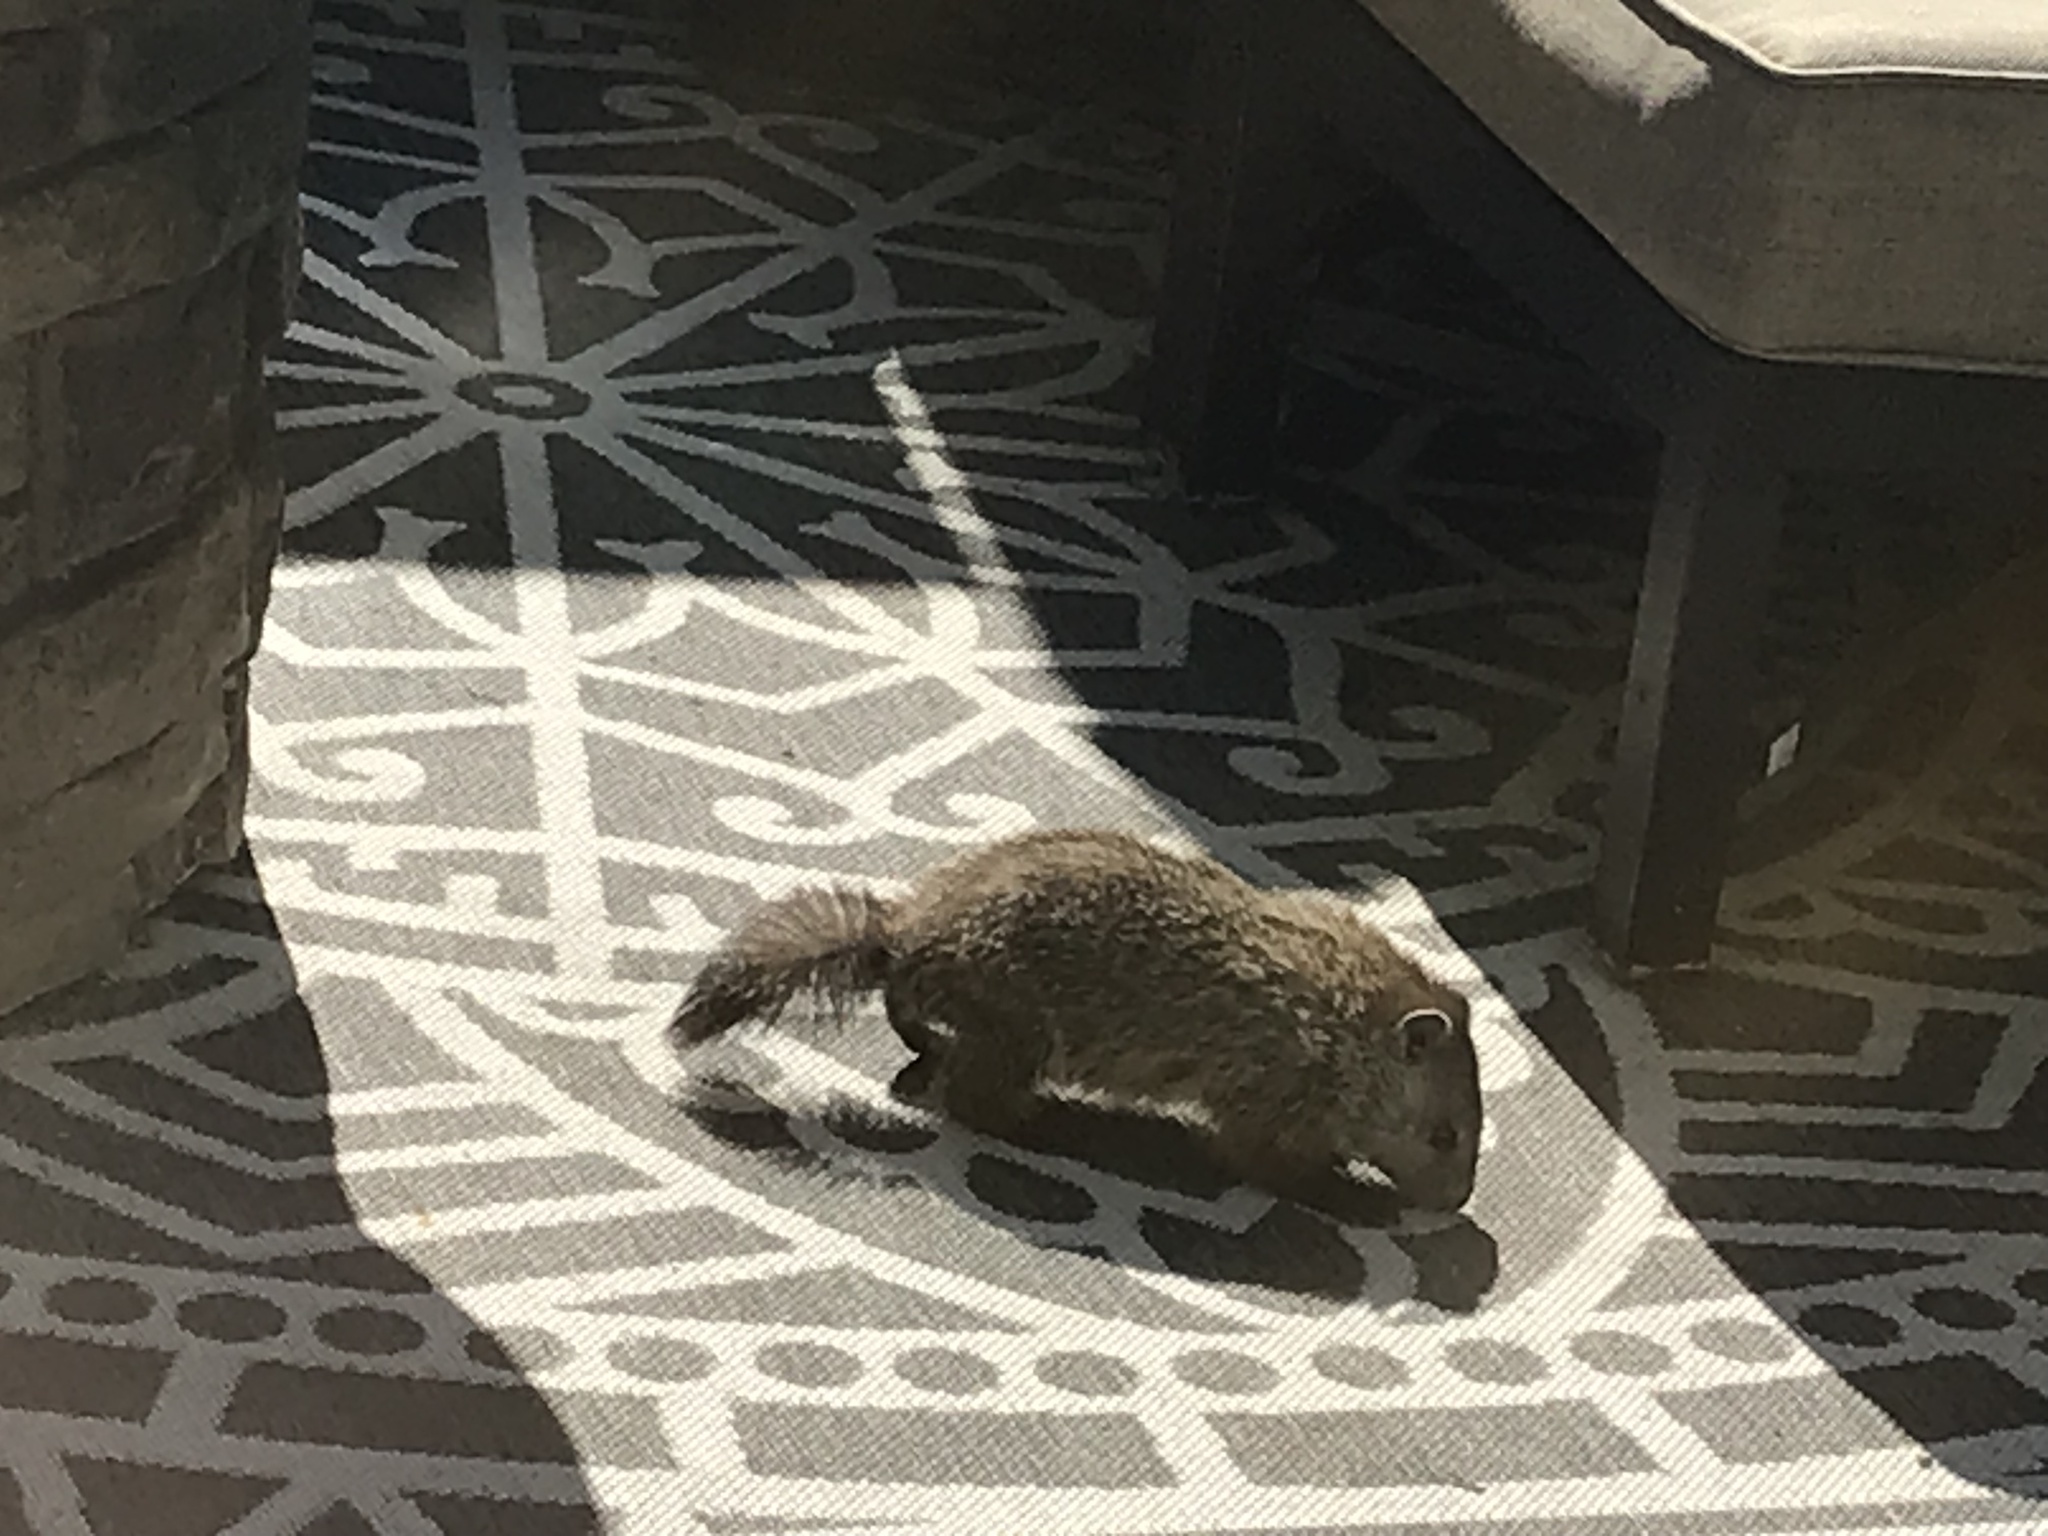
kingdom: Animalia
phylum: Chordata
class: Mammalia
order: Rodentia
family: Sciuridae
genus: Marmota
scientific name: Marmota monax
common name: Groundhog
